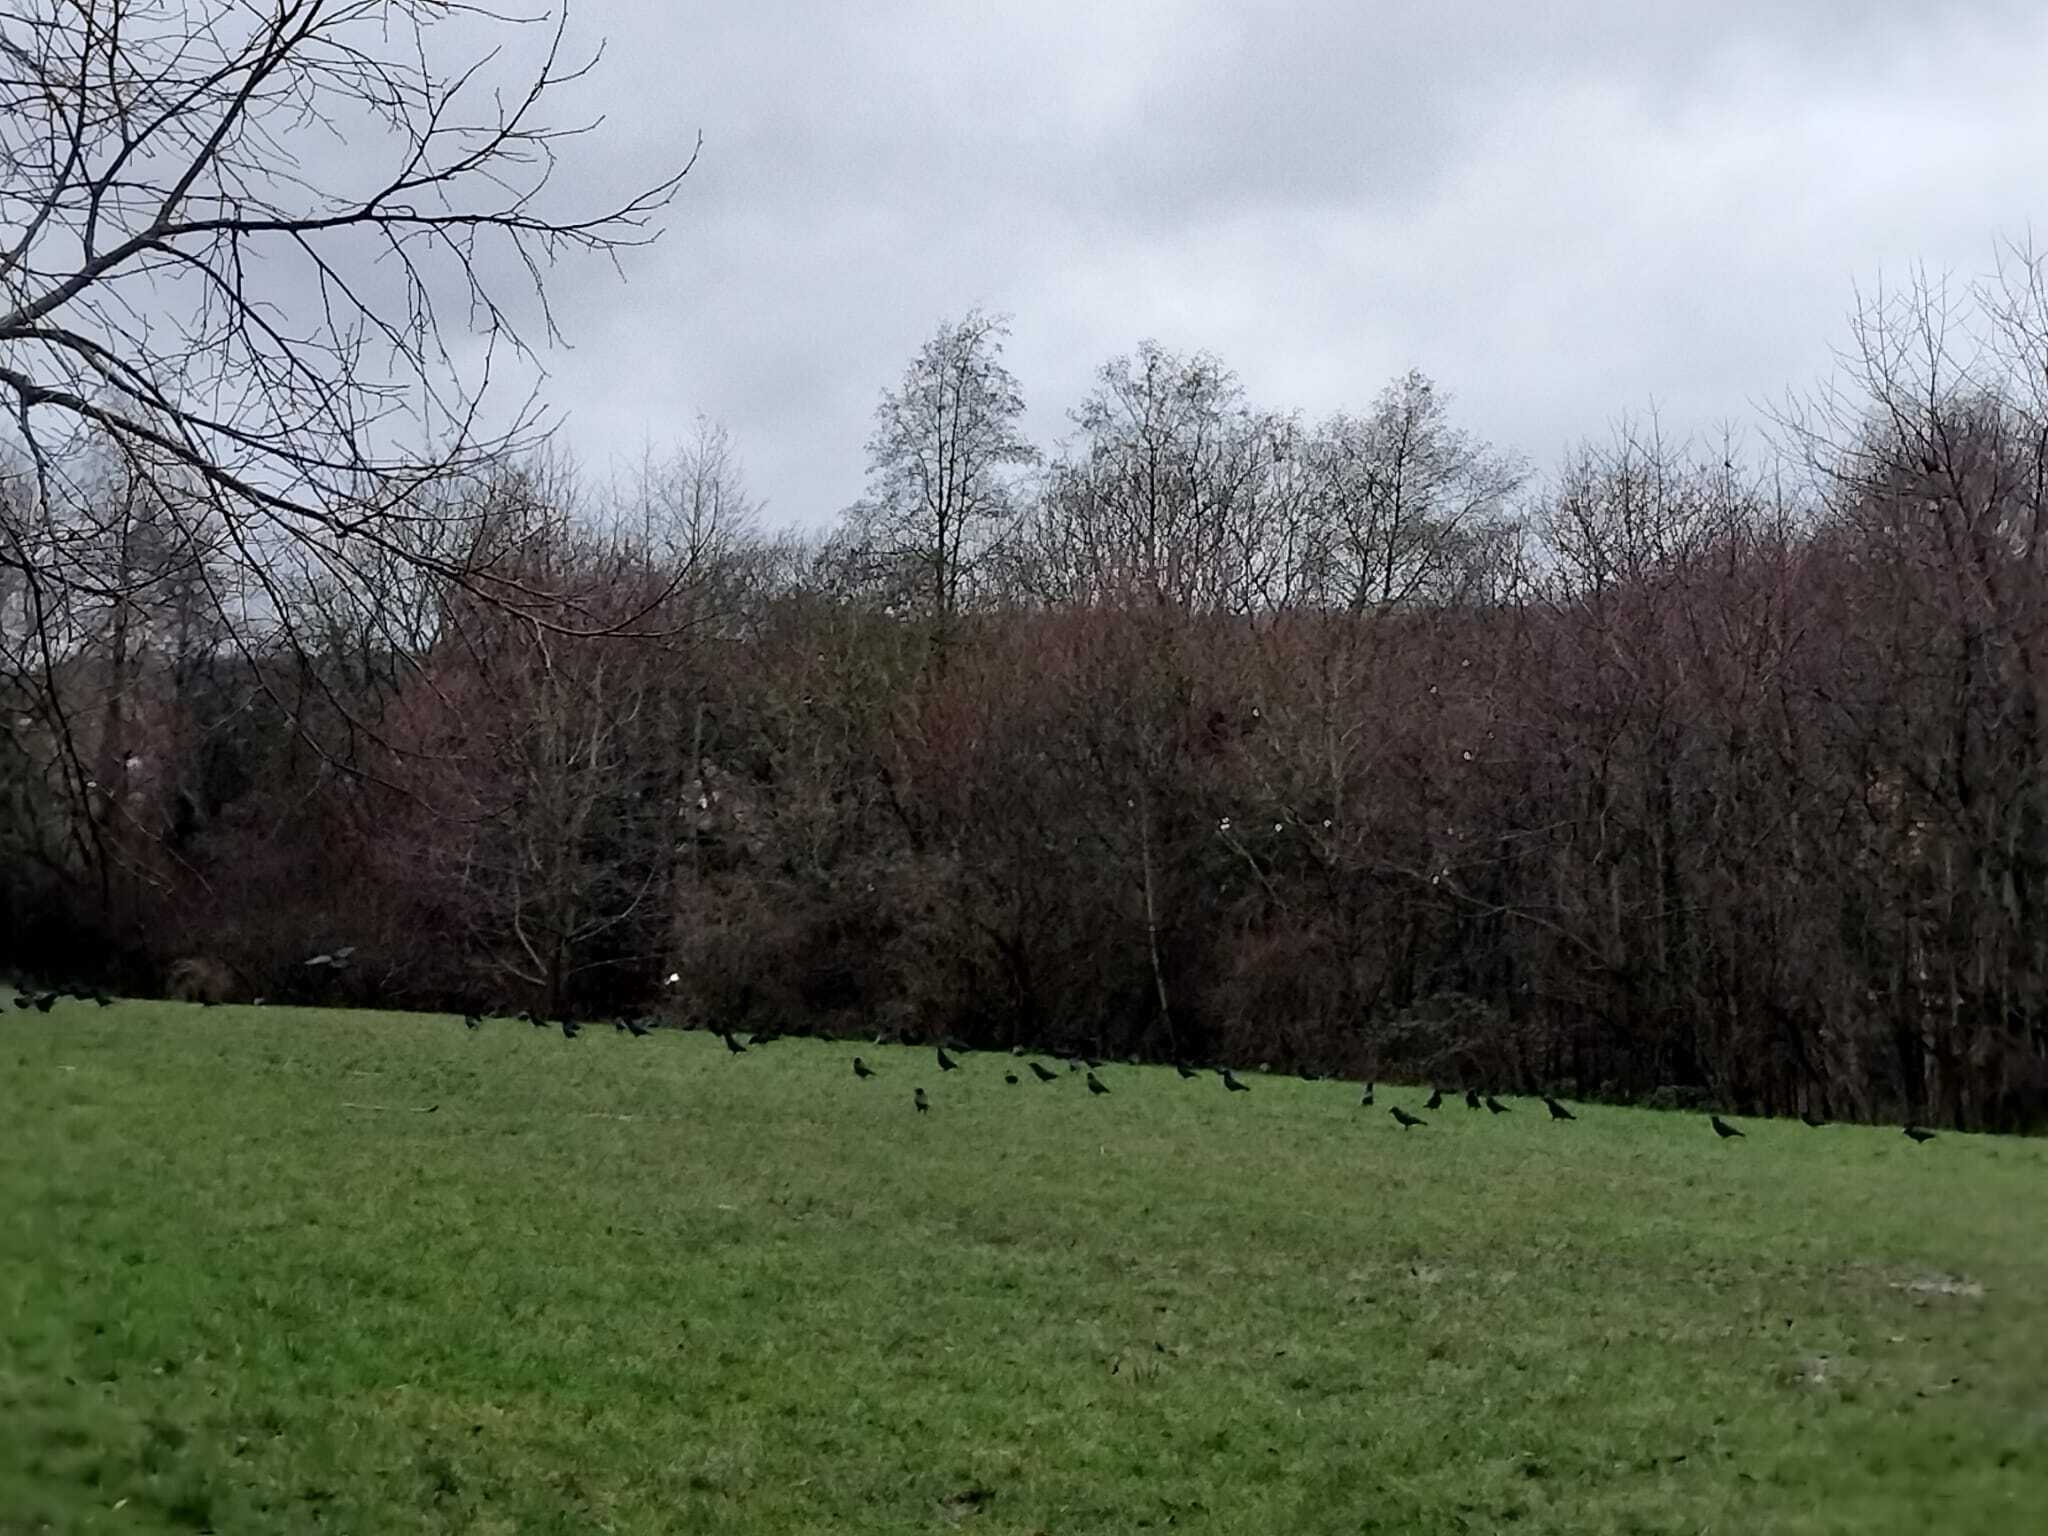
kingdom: Animalia
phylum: Chordata
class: Aves
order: Passeriformes
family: Corvidae
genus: Corvus
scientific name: Corvus frugilegus
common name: Rook
